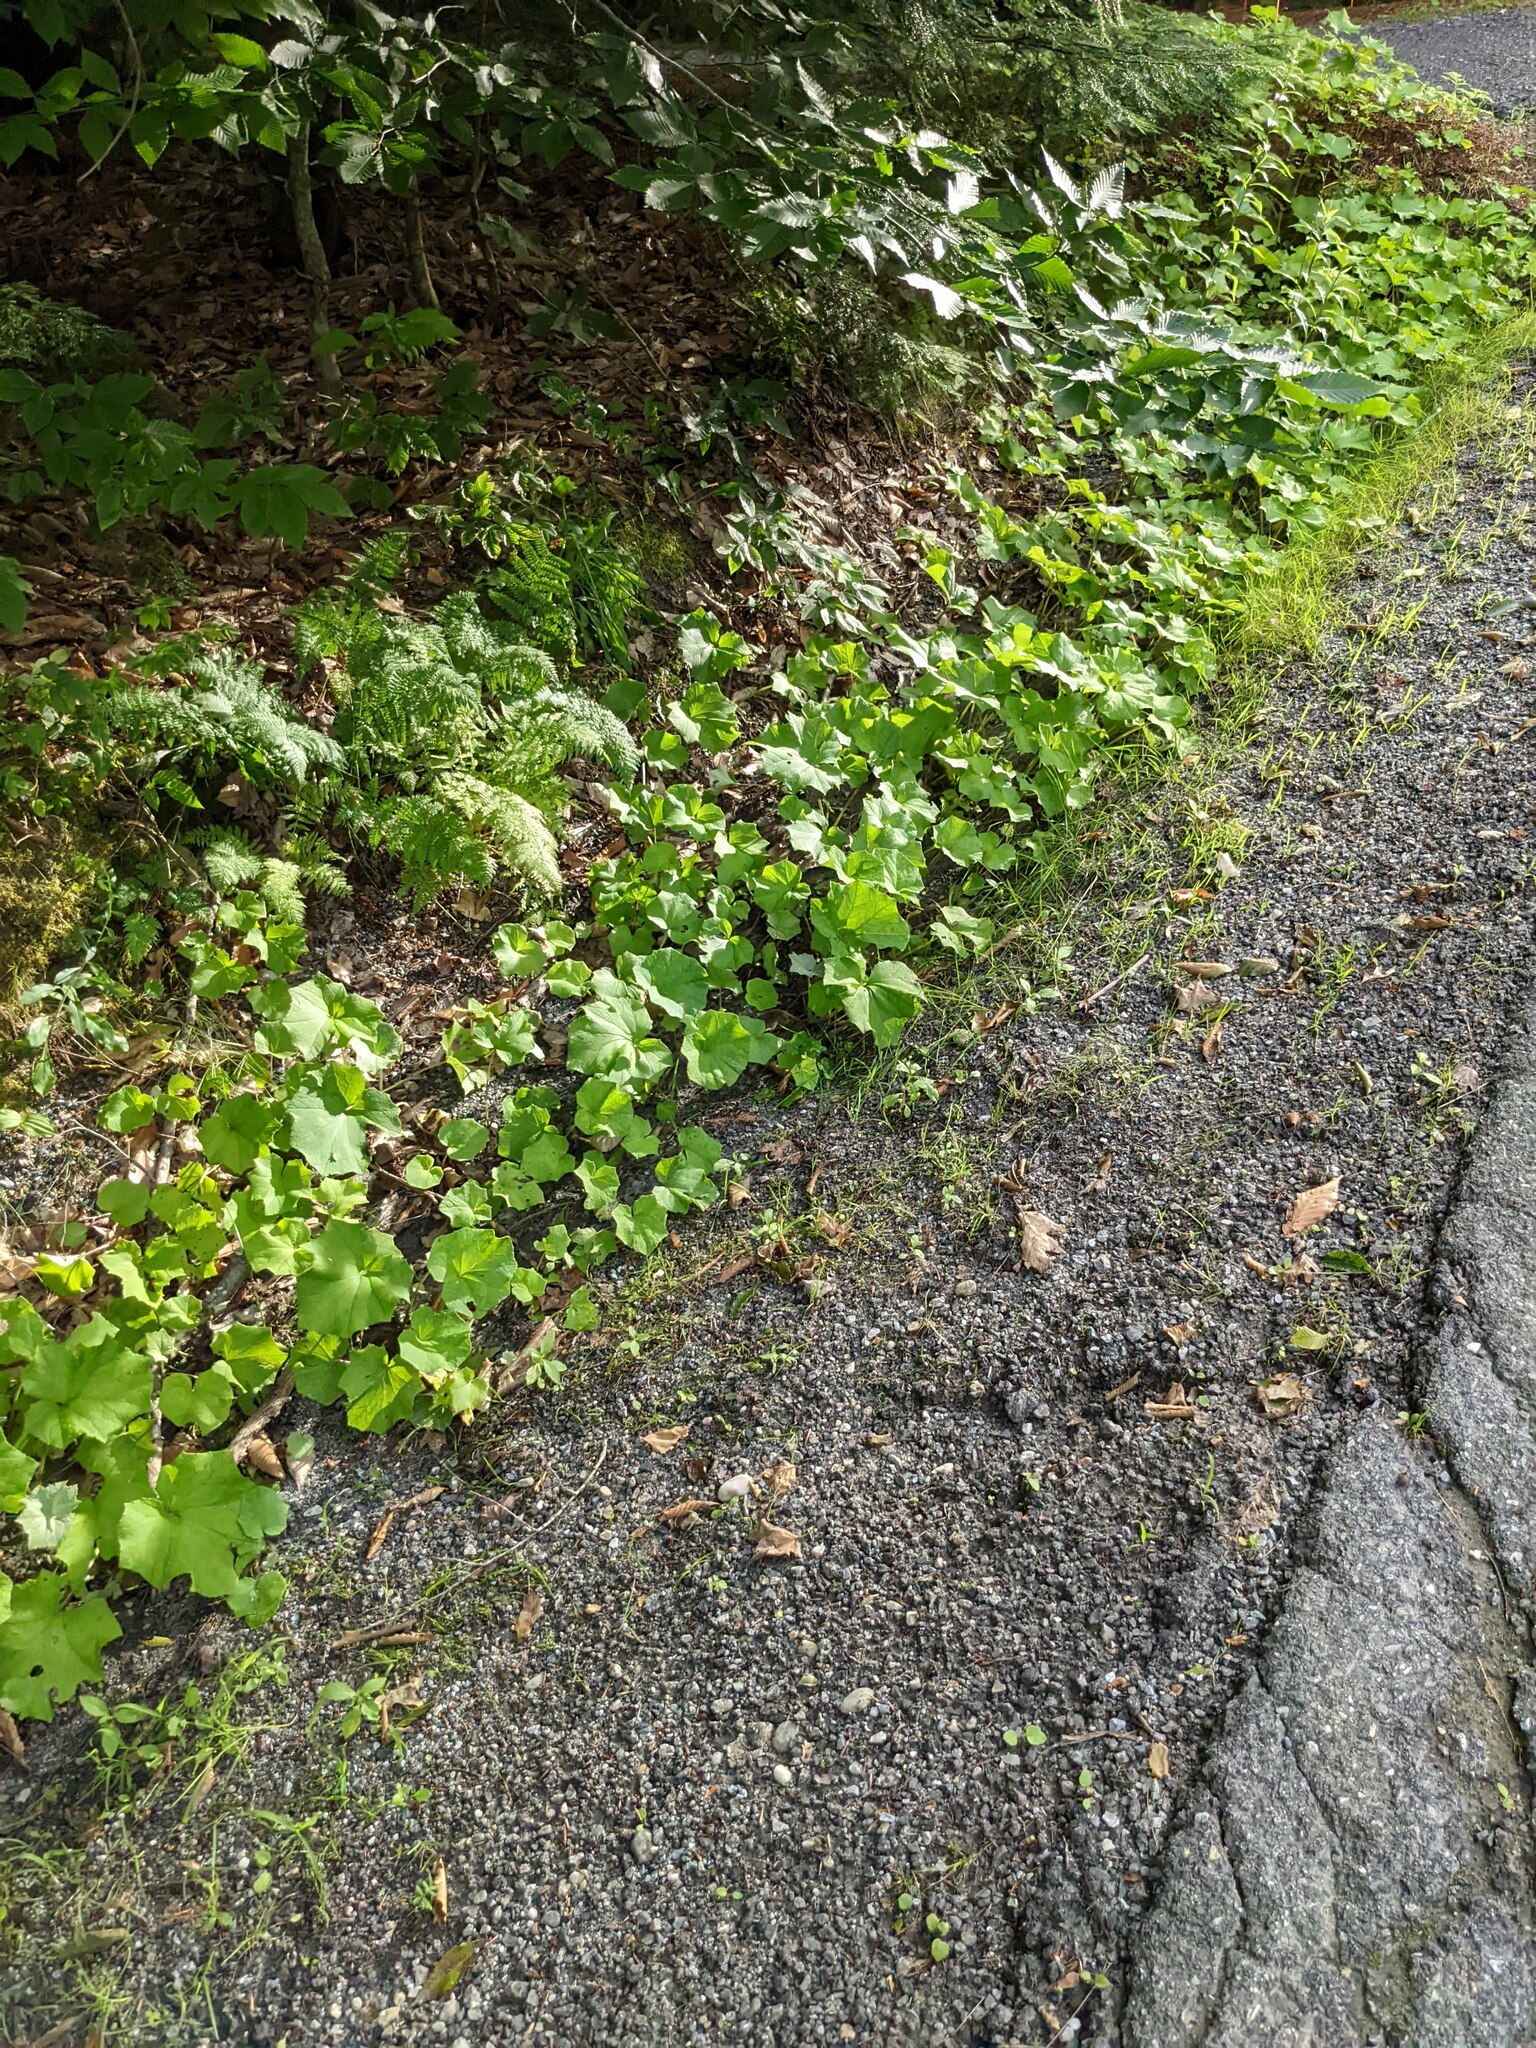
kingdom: Plantae
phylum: Tracheophyta
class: Magnoliopsida
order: Asterales
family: Asteraceae
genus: Tussilago
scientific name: Tussilago farfara
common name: Coltsfoot
